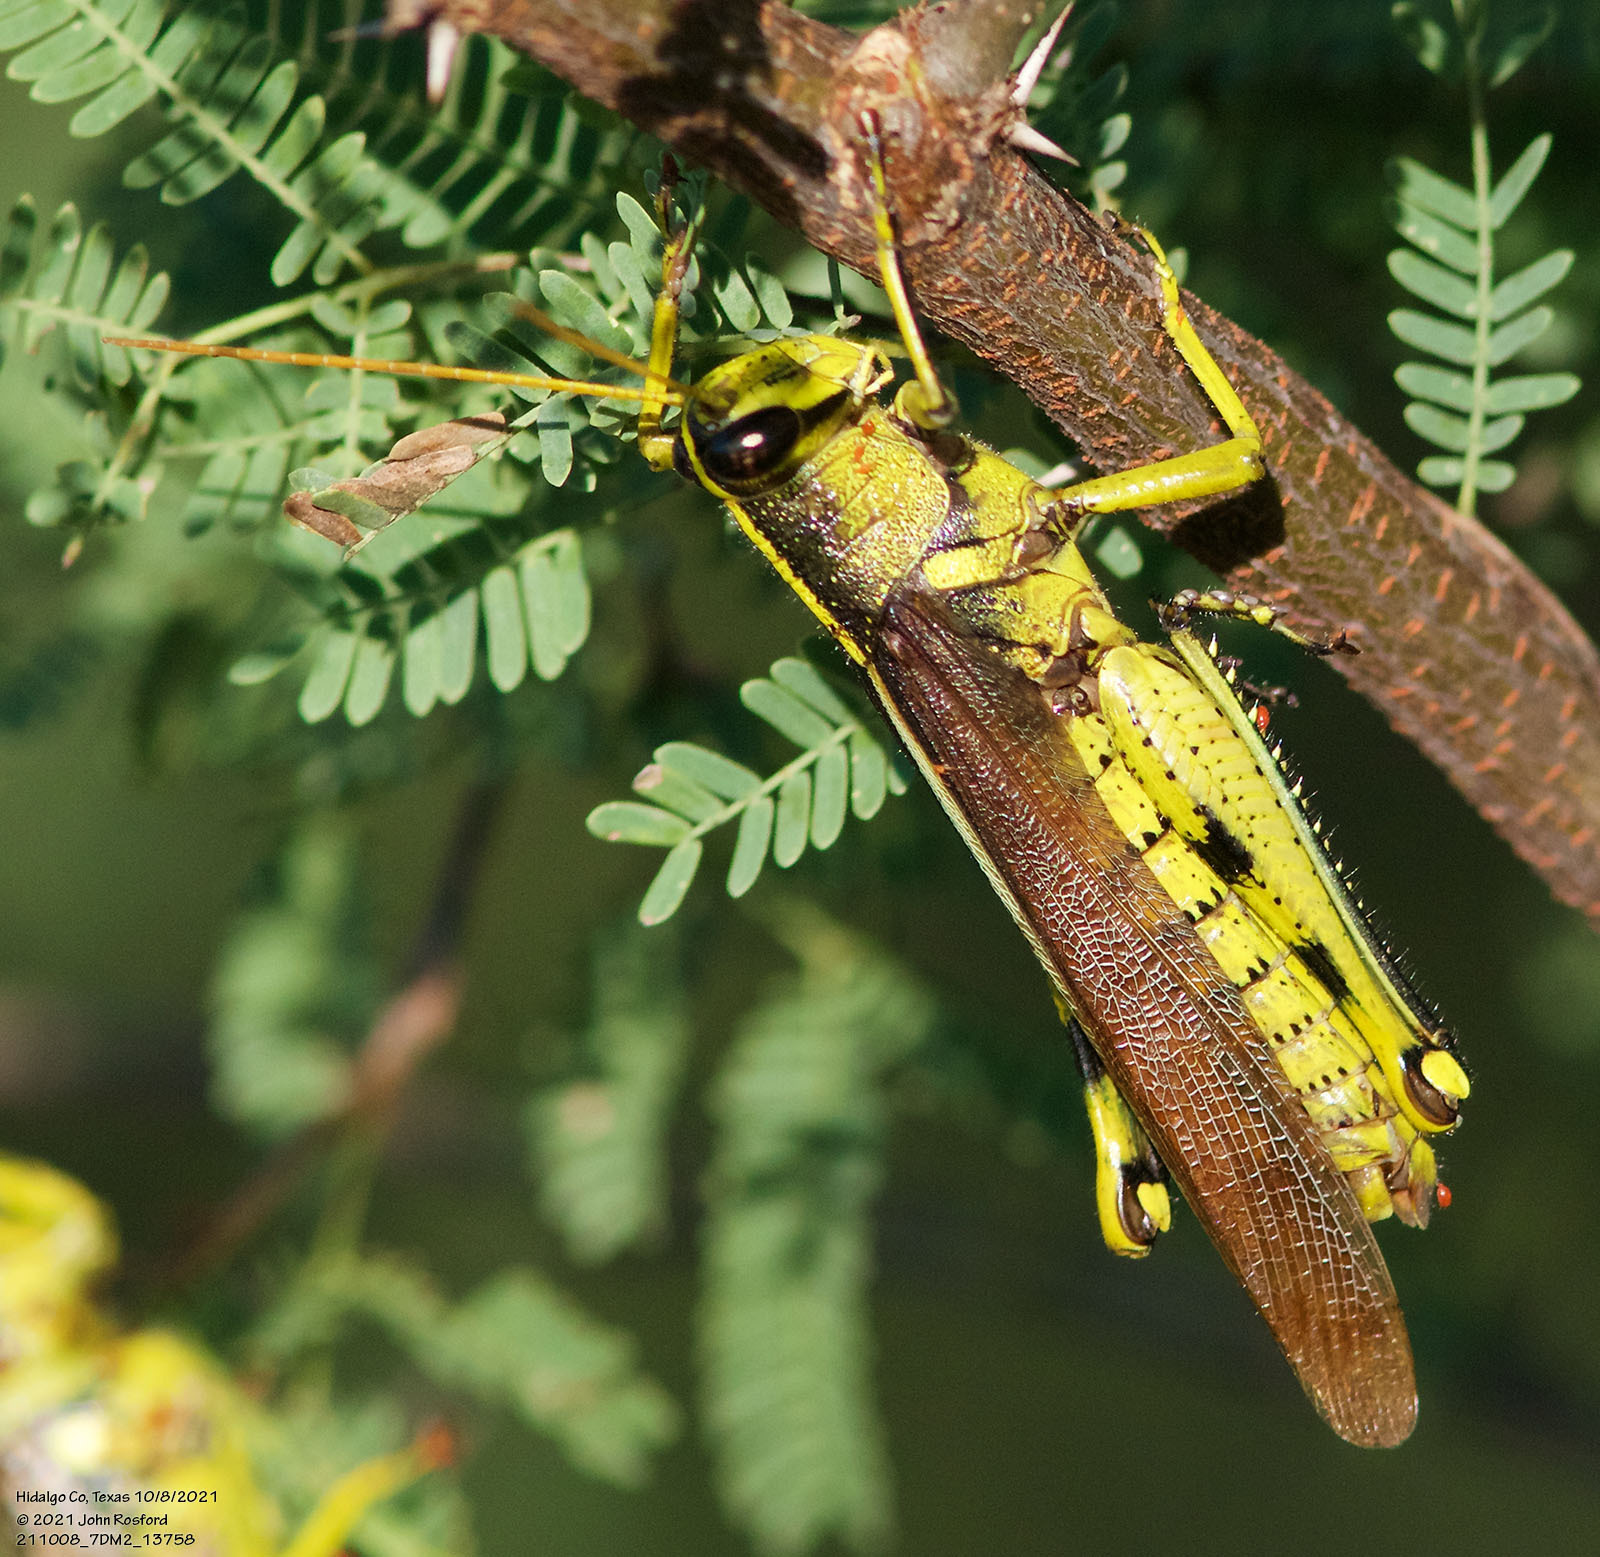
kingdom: Animalia
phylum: Arthropoda
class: Insecta
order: Orthoptera
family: Acrididae
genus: Schistocerca
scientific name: Schistocerca obscura
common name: Obscure bird grasshopper
